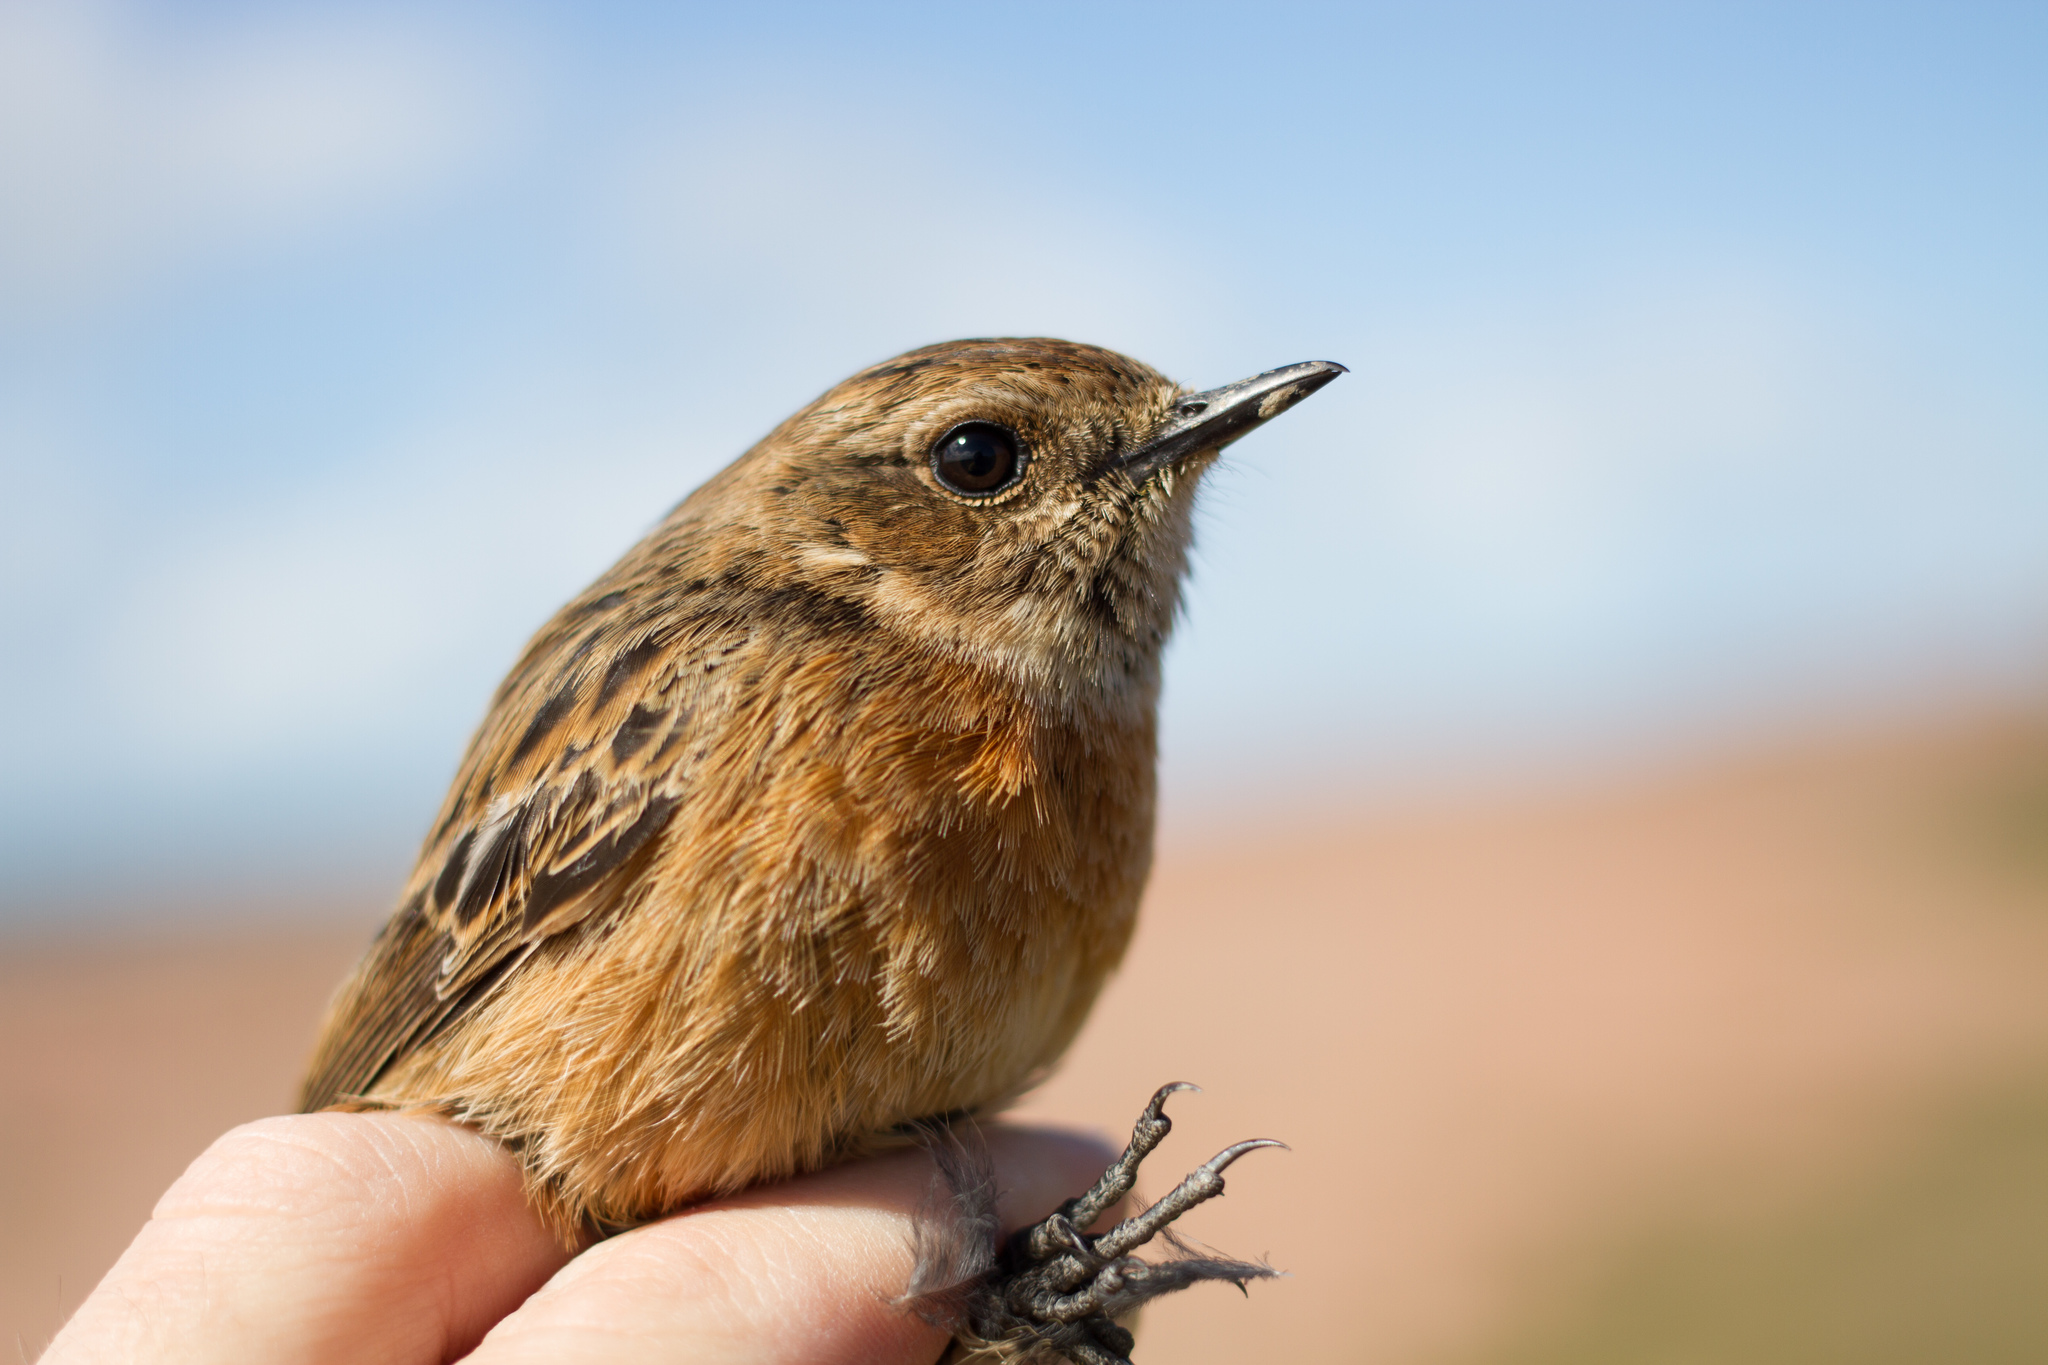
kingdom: Animalia
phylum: Chordata
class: Aves
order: Passeriformes
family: Muscicapidae
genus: Saxicola
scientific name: Saxicola rubicola
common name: European stonechat
